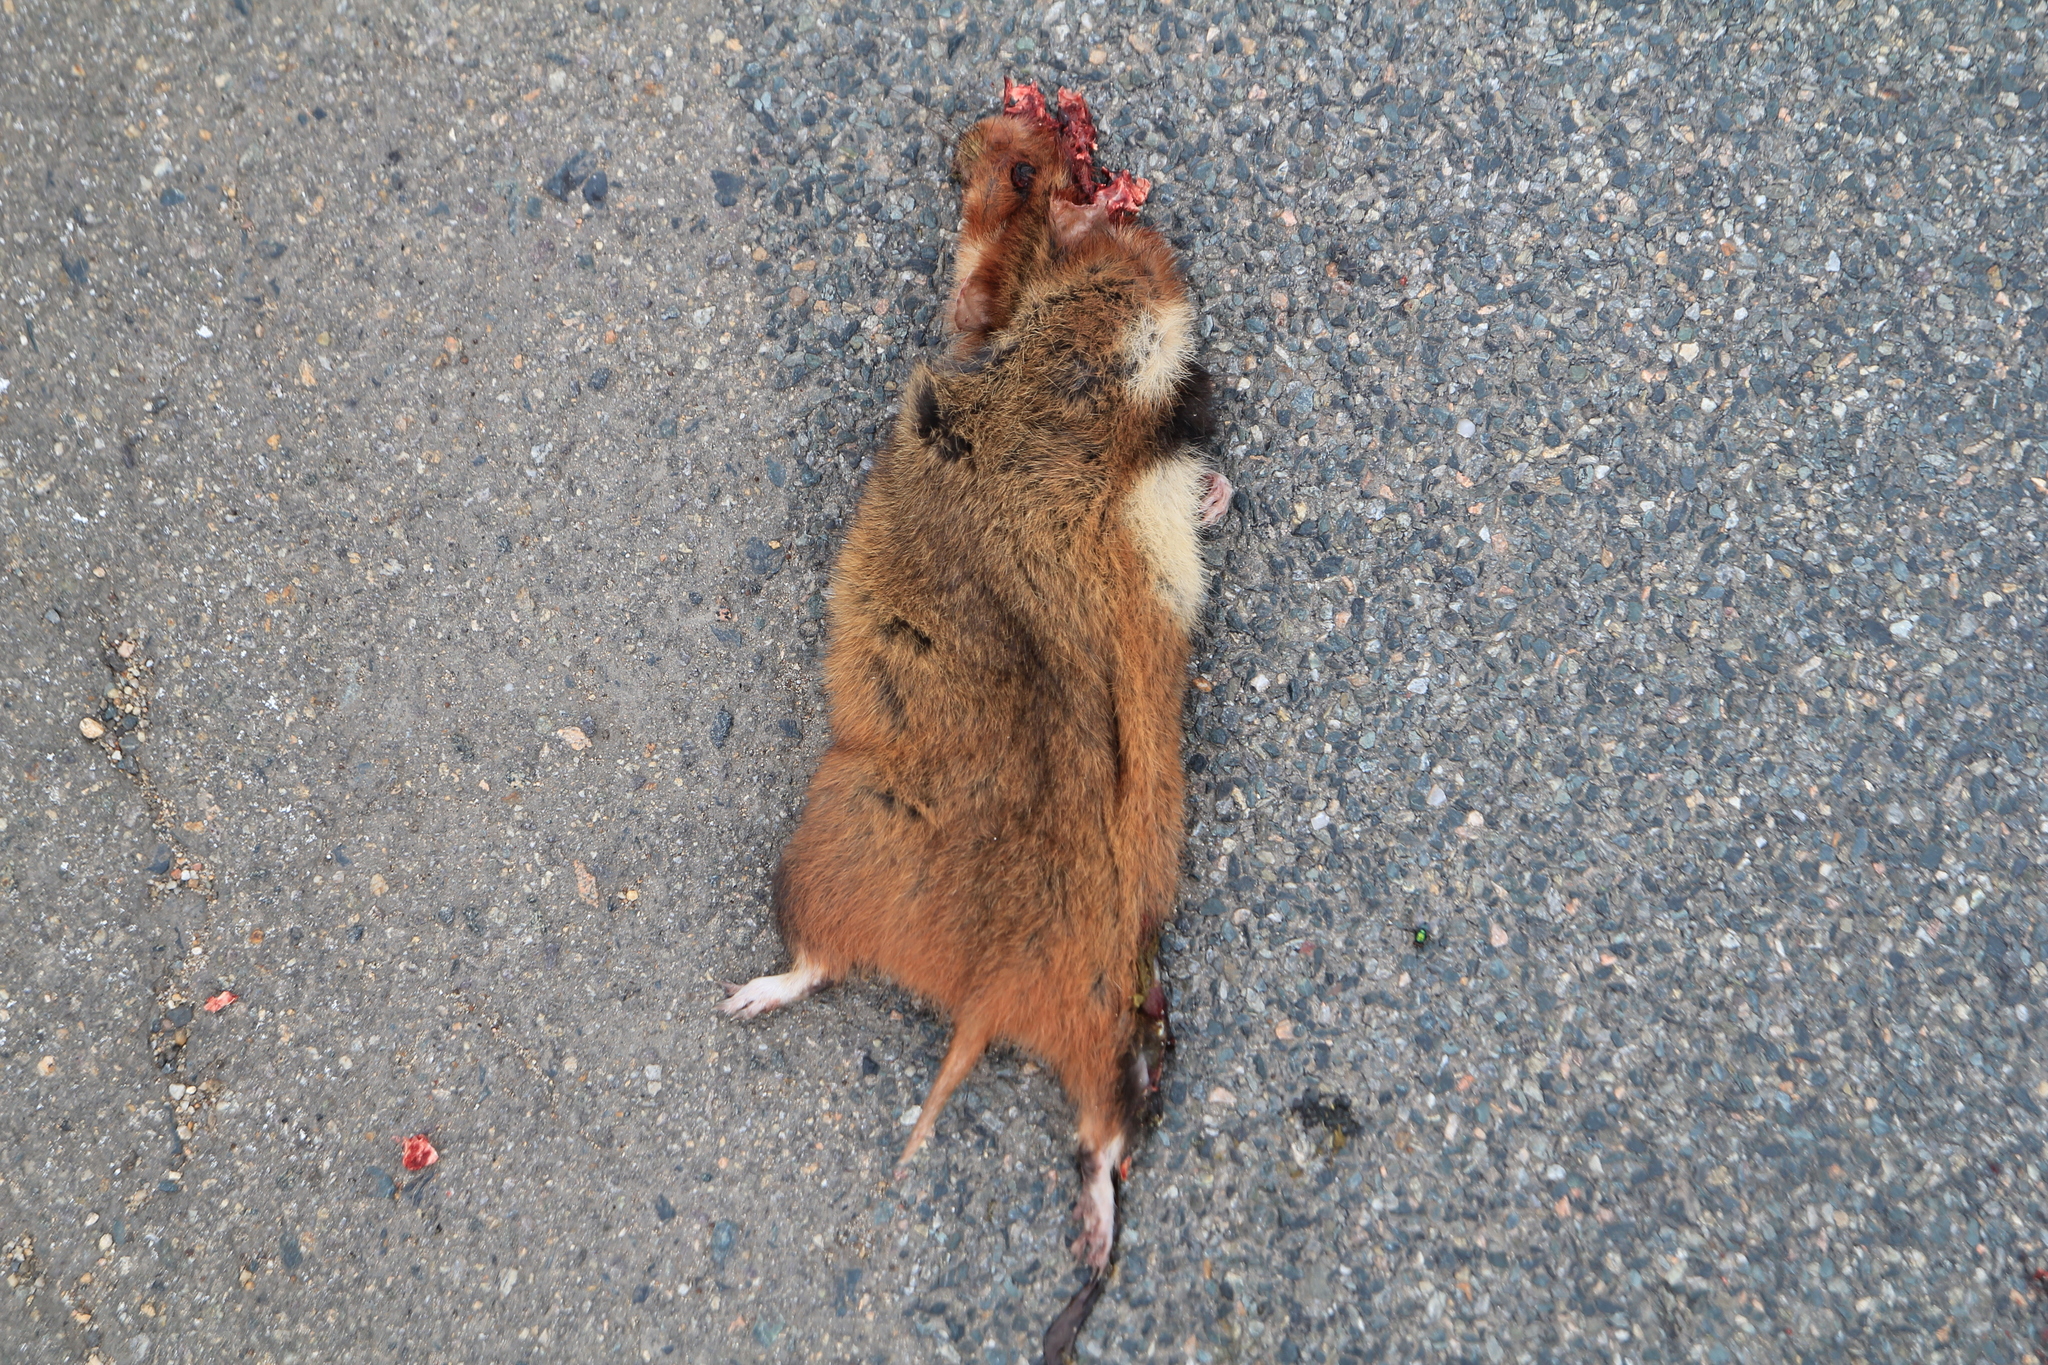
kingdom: Animalia
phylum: Chordata
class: Mammalia
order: Rodentia
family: Cricetidae
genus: Cricetus
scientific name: Cricetus cricetus
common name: Common hamster
